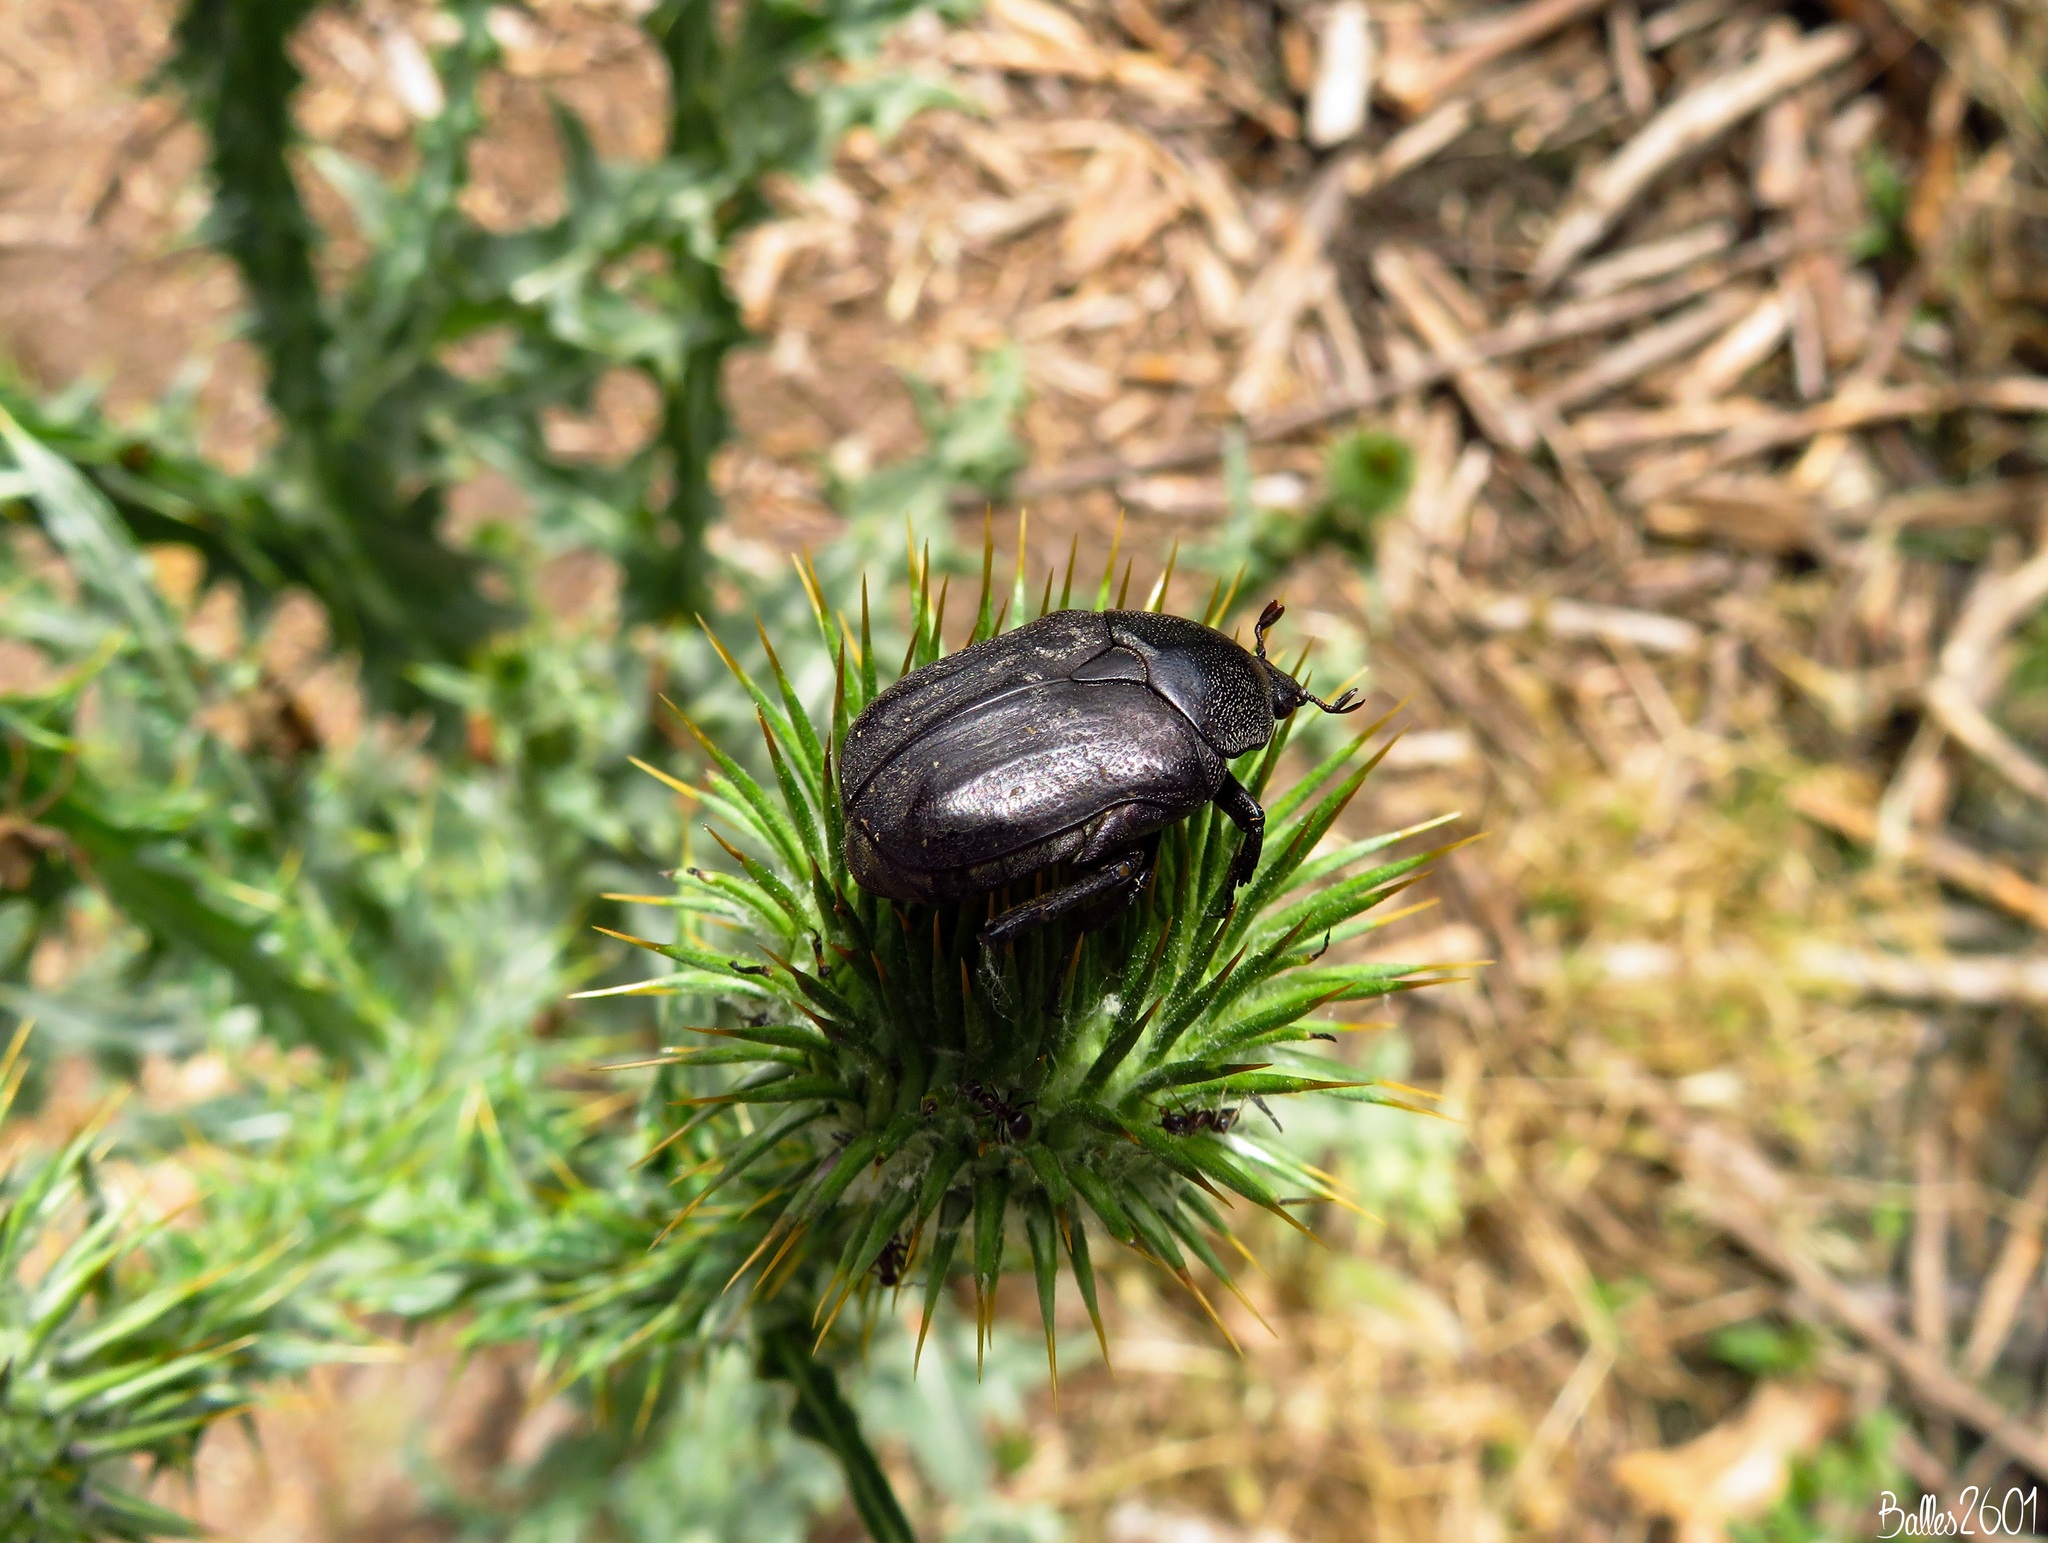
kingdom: Animalia
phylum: Arthropoda
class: Insecta
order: Coleoptera
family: Scarabaeidae
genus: Protaetia
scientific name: Protaetia morio
